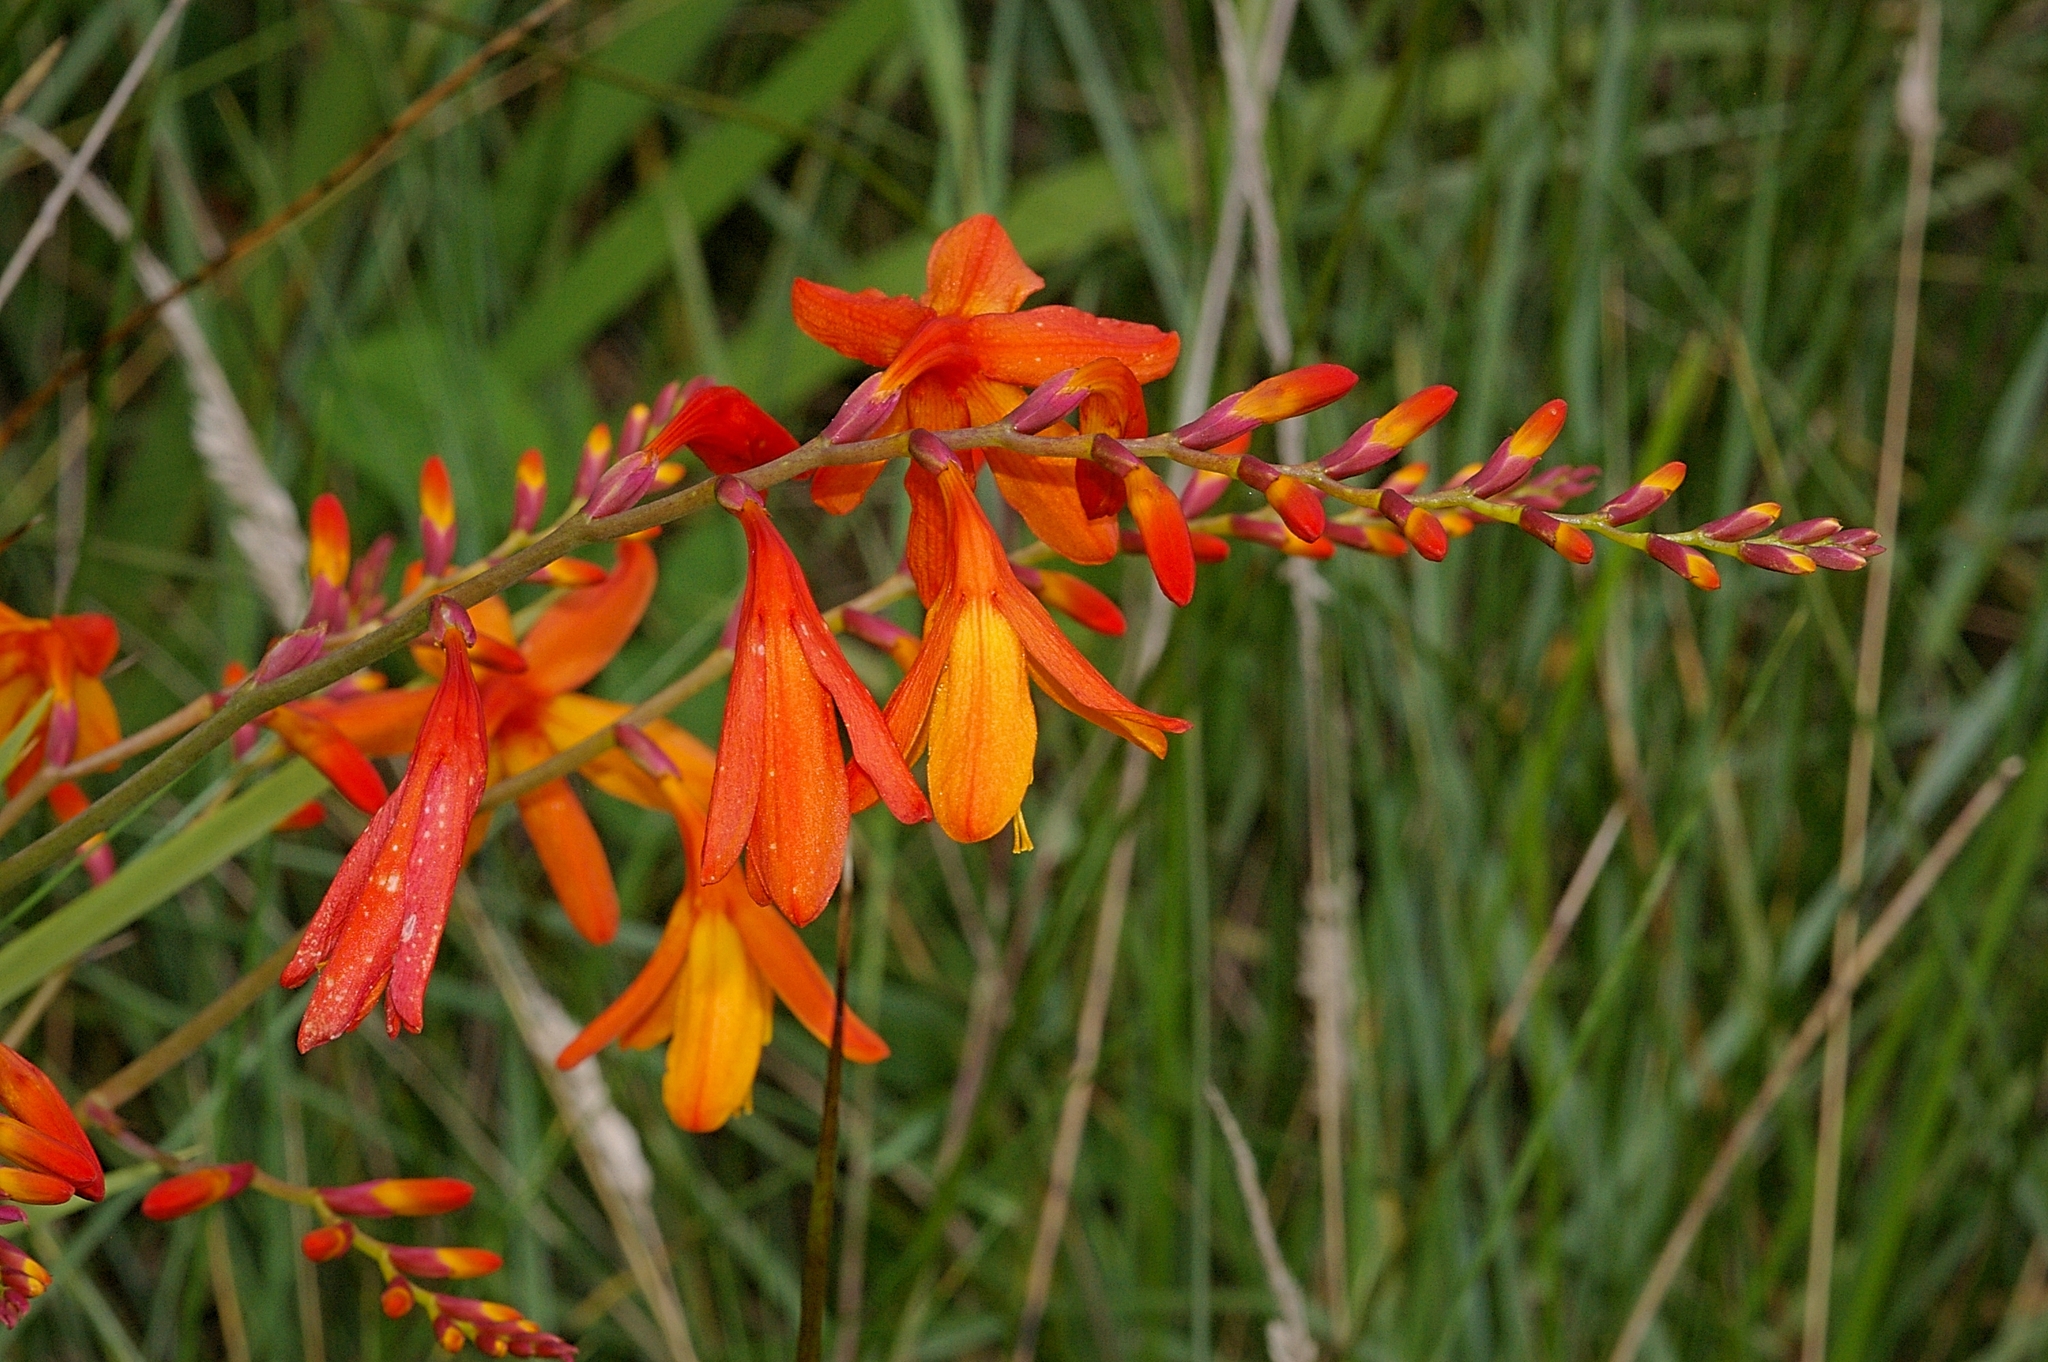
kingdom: Plantae
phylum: Tracheophyta
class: Liliopsida
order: Asparagales
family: Iridaceae
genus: Crocosmia
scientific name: Crocosmia crocosmiiflora
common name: Montbretia
